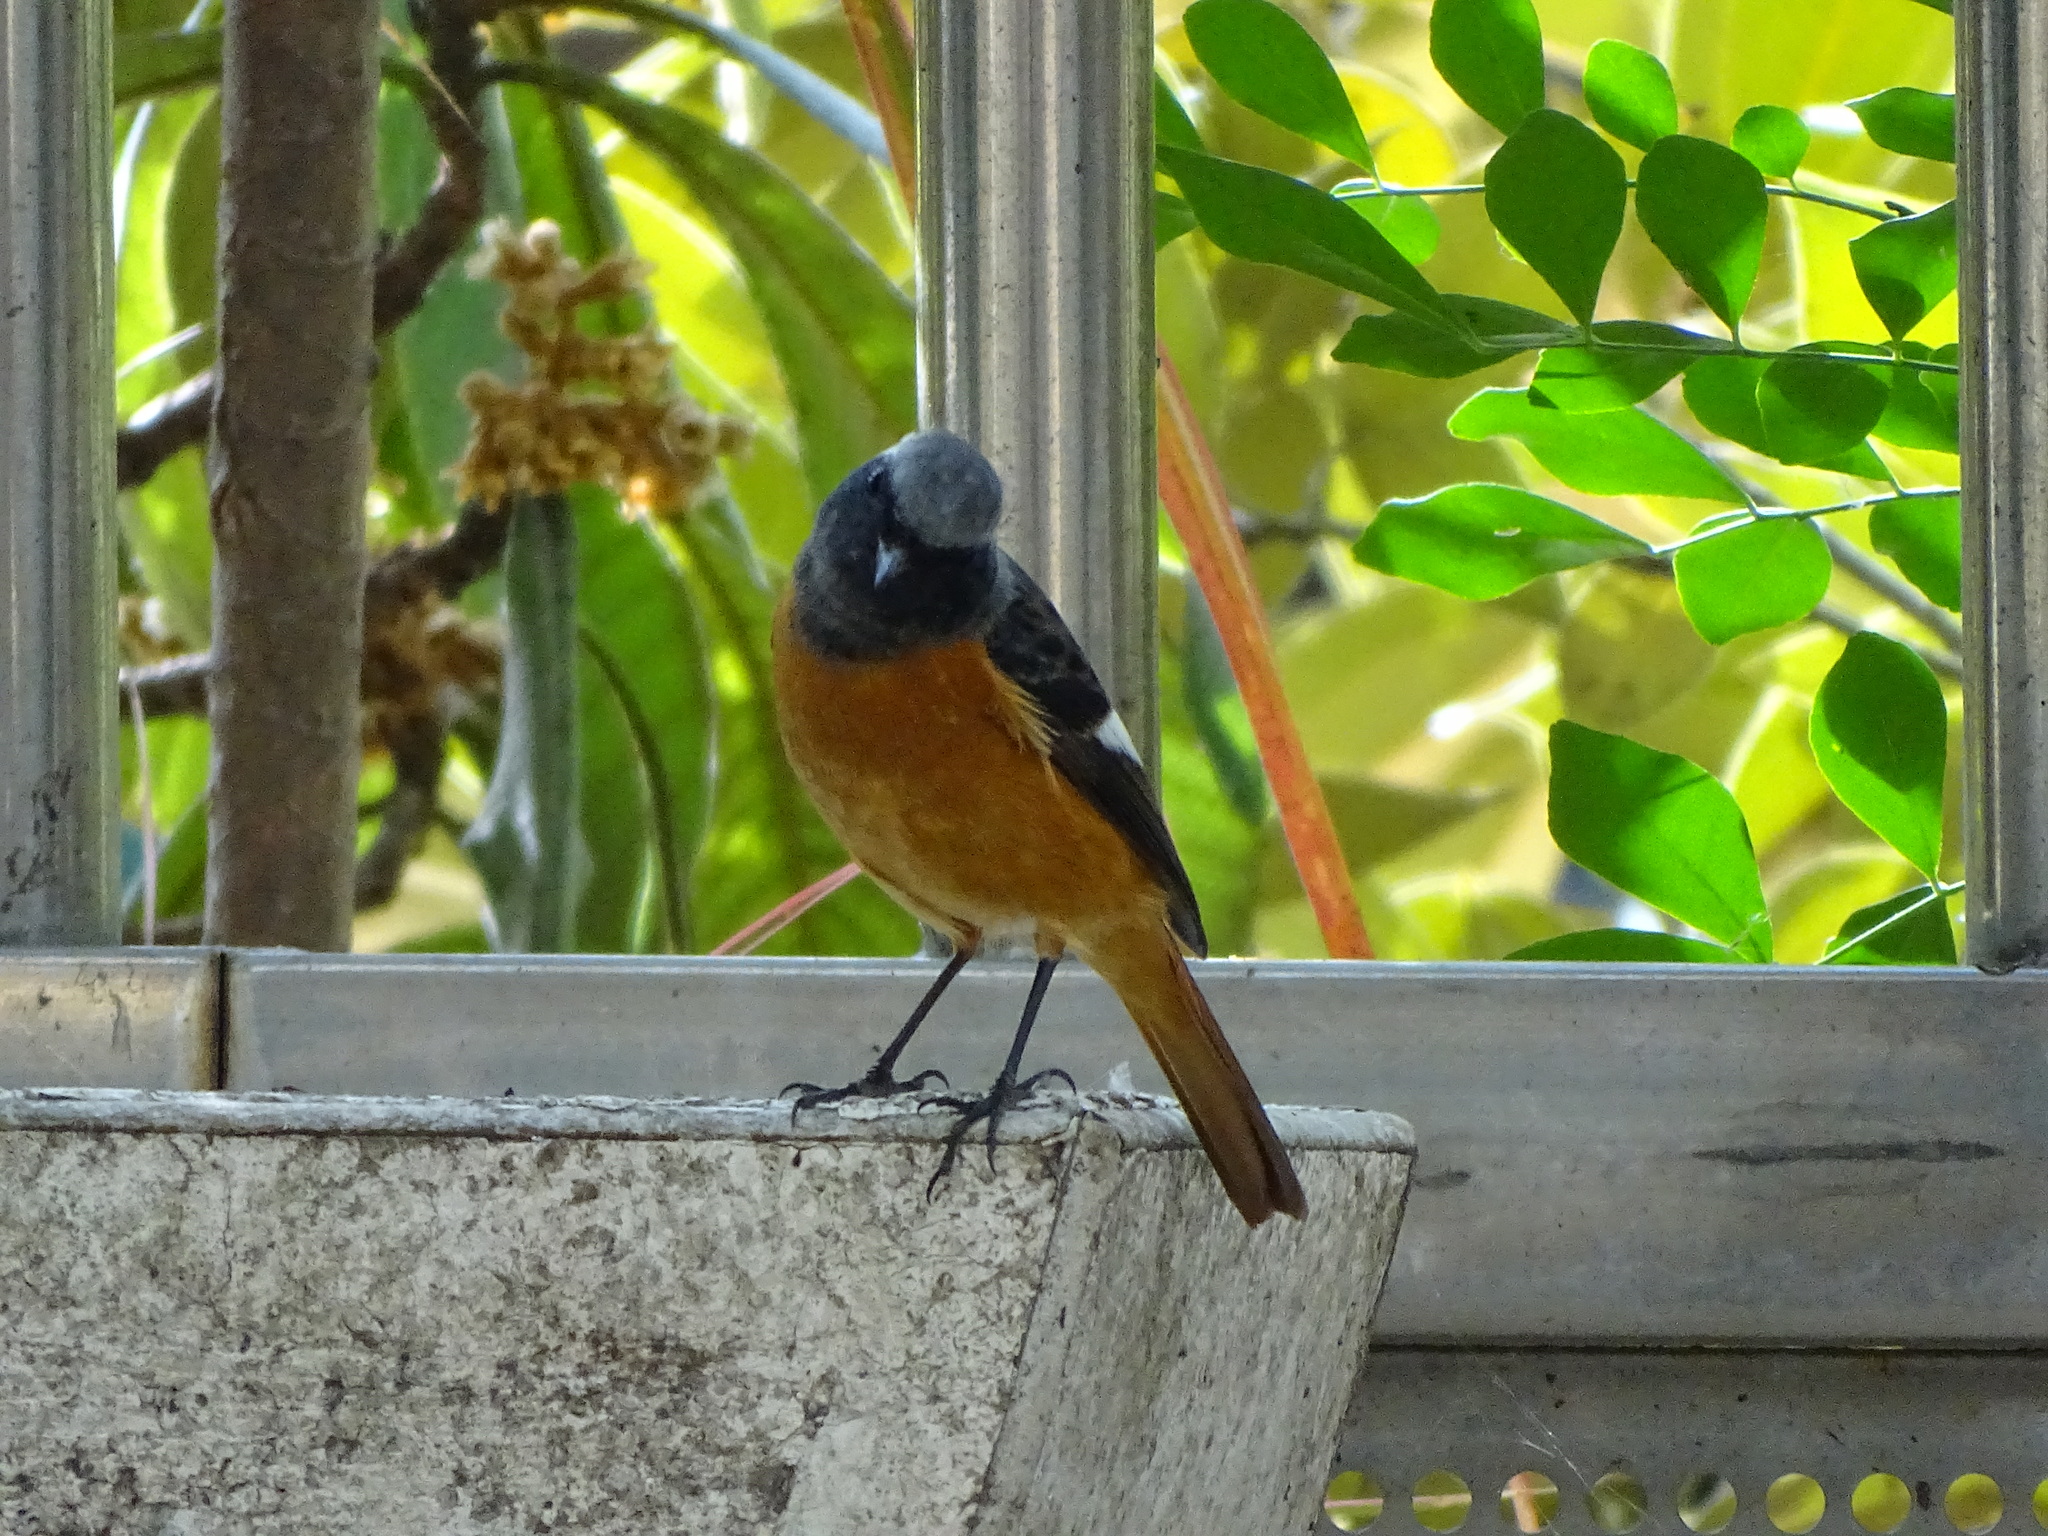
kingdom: Animalia
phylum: Chordata
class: Aves
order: Passeriformes
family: Muscicapidae
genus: Phoenicurus
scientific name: Phoenicurus auroreus
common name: Daurian redstart
